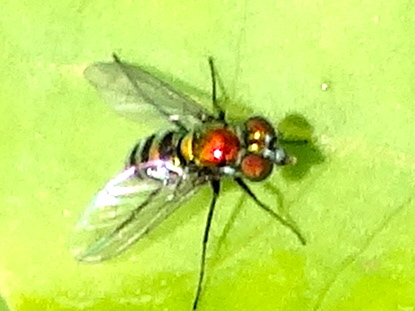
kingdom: Animalia
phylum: Arthropoda
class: Insecta
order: Diptera
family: Dolichopodidae
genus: Condylostylus
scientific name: Condylostylus
